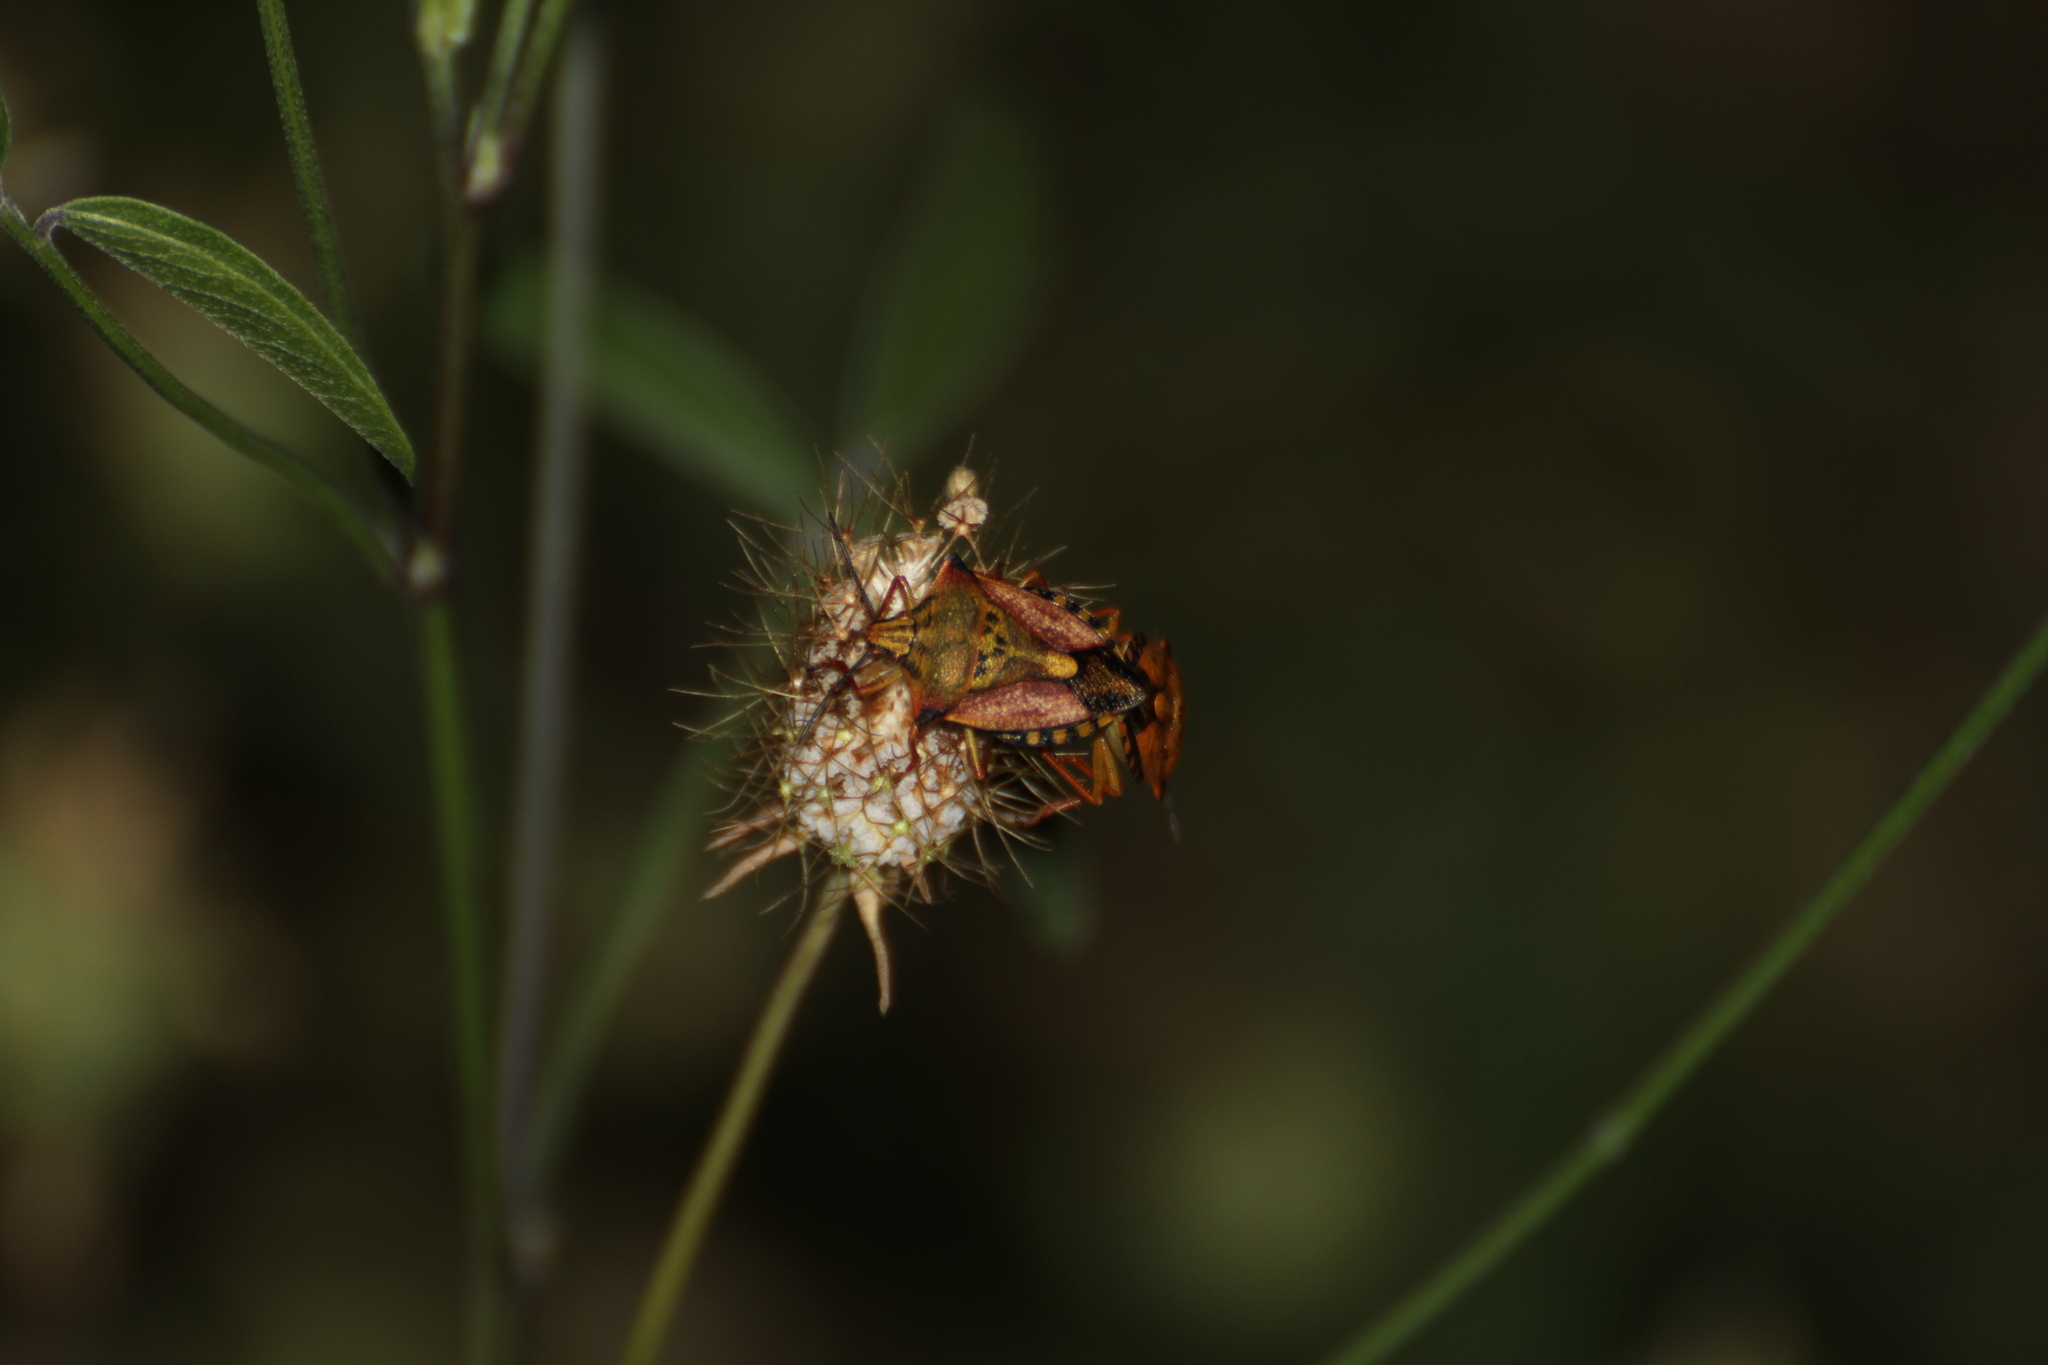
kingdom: Animalia
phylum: Arthropoda
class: Insecta
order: Hemiptera
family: Pentatomidae
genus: Carpocoris
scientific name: Carpocoris mediterraneus
